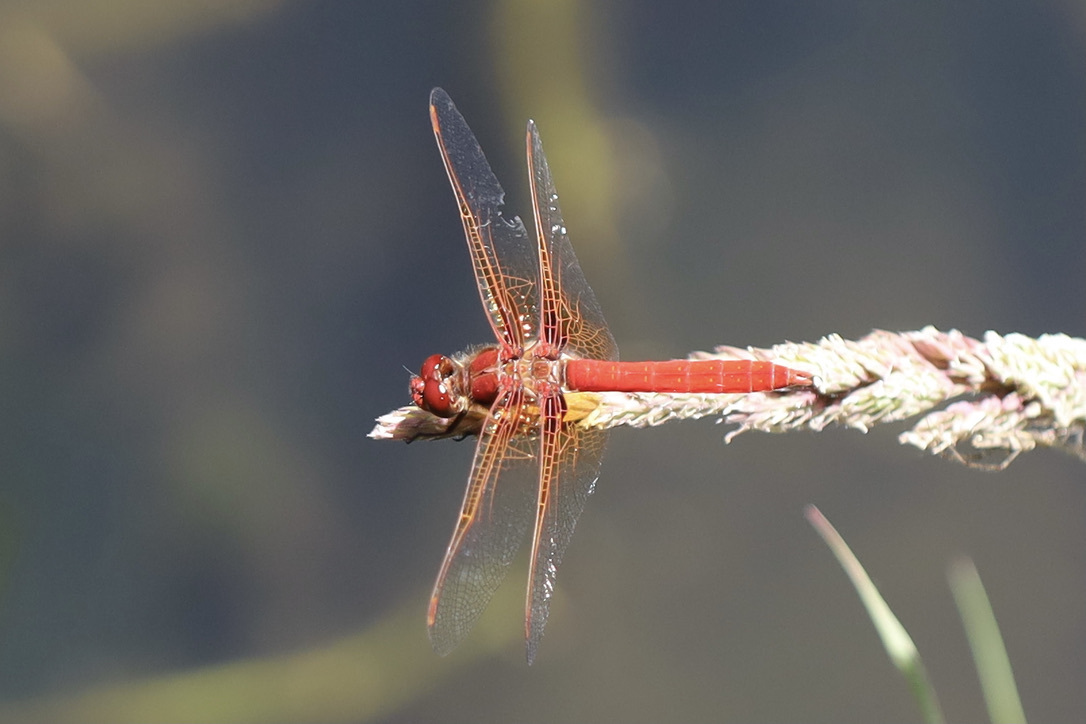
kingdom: Animalia
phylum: Arthropoda
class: Insecta
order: Odonata
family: Libellulidae
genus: Sympetrum
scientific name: Sympetrum illotum
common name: Cardinal meadowhawk
